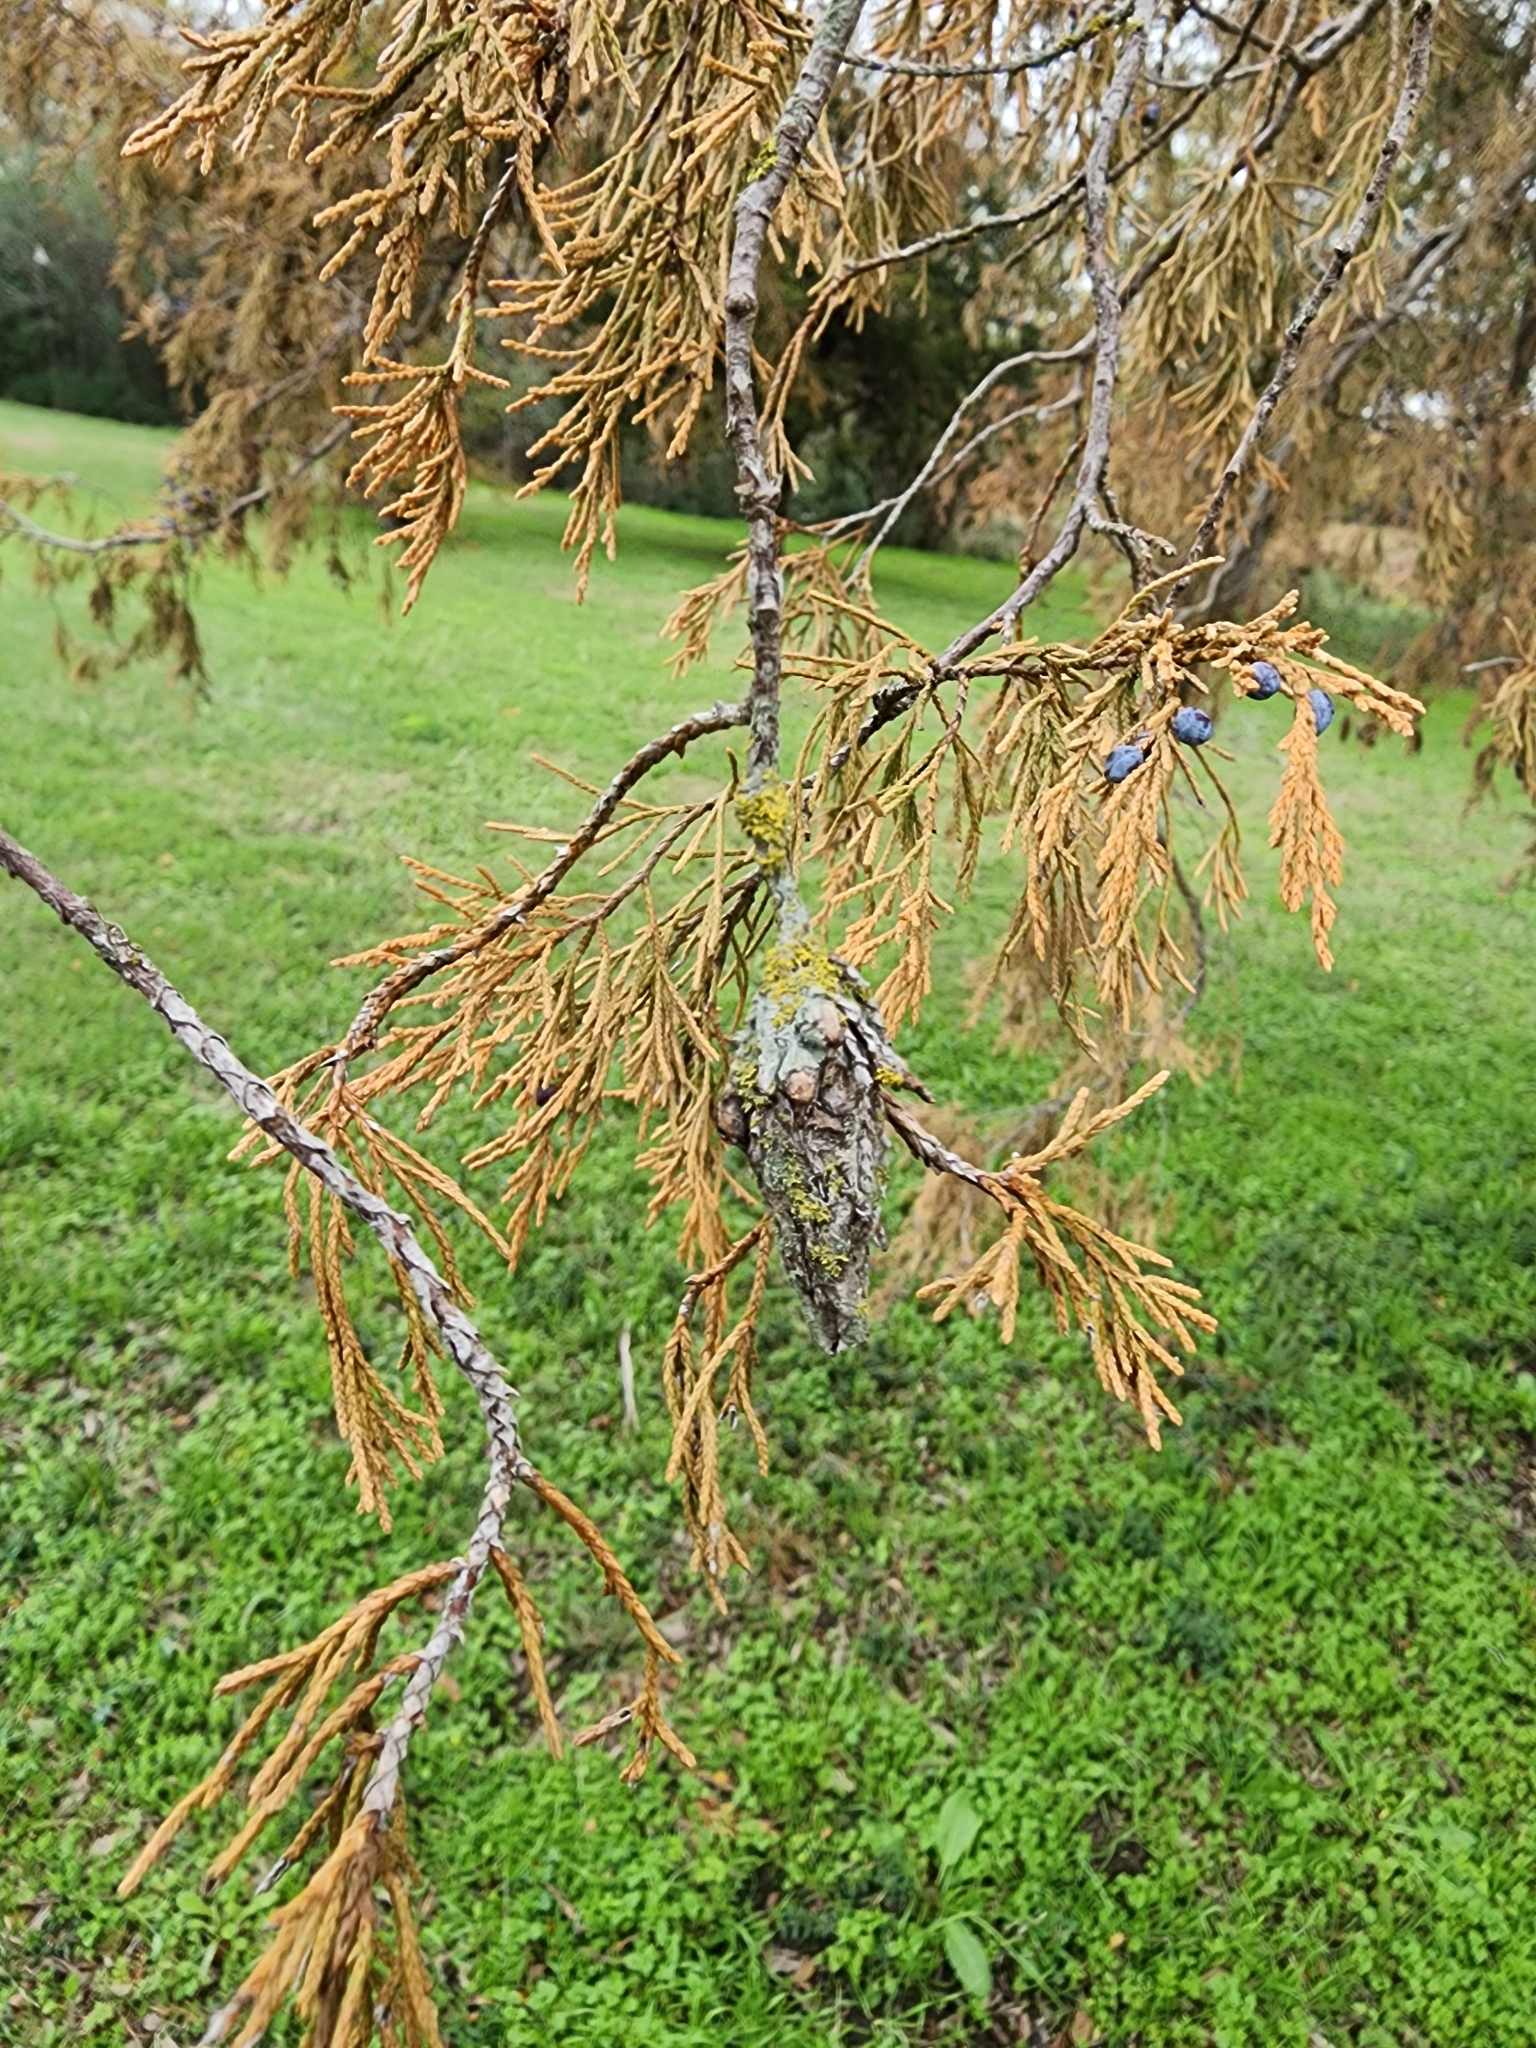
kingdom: Animalia
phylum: Arthropoda
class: Insecta
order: Lepidoptera
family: Psychidae
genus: Thyridopteryx
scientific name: Thyridopteryx ephemeraeformis
